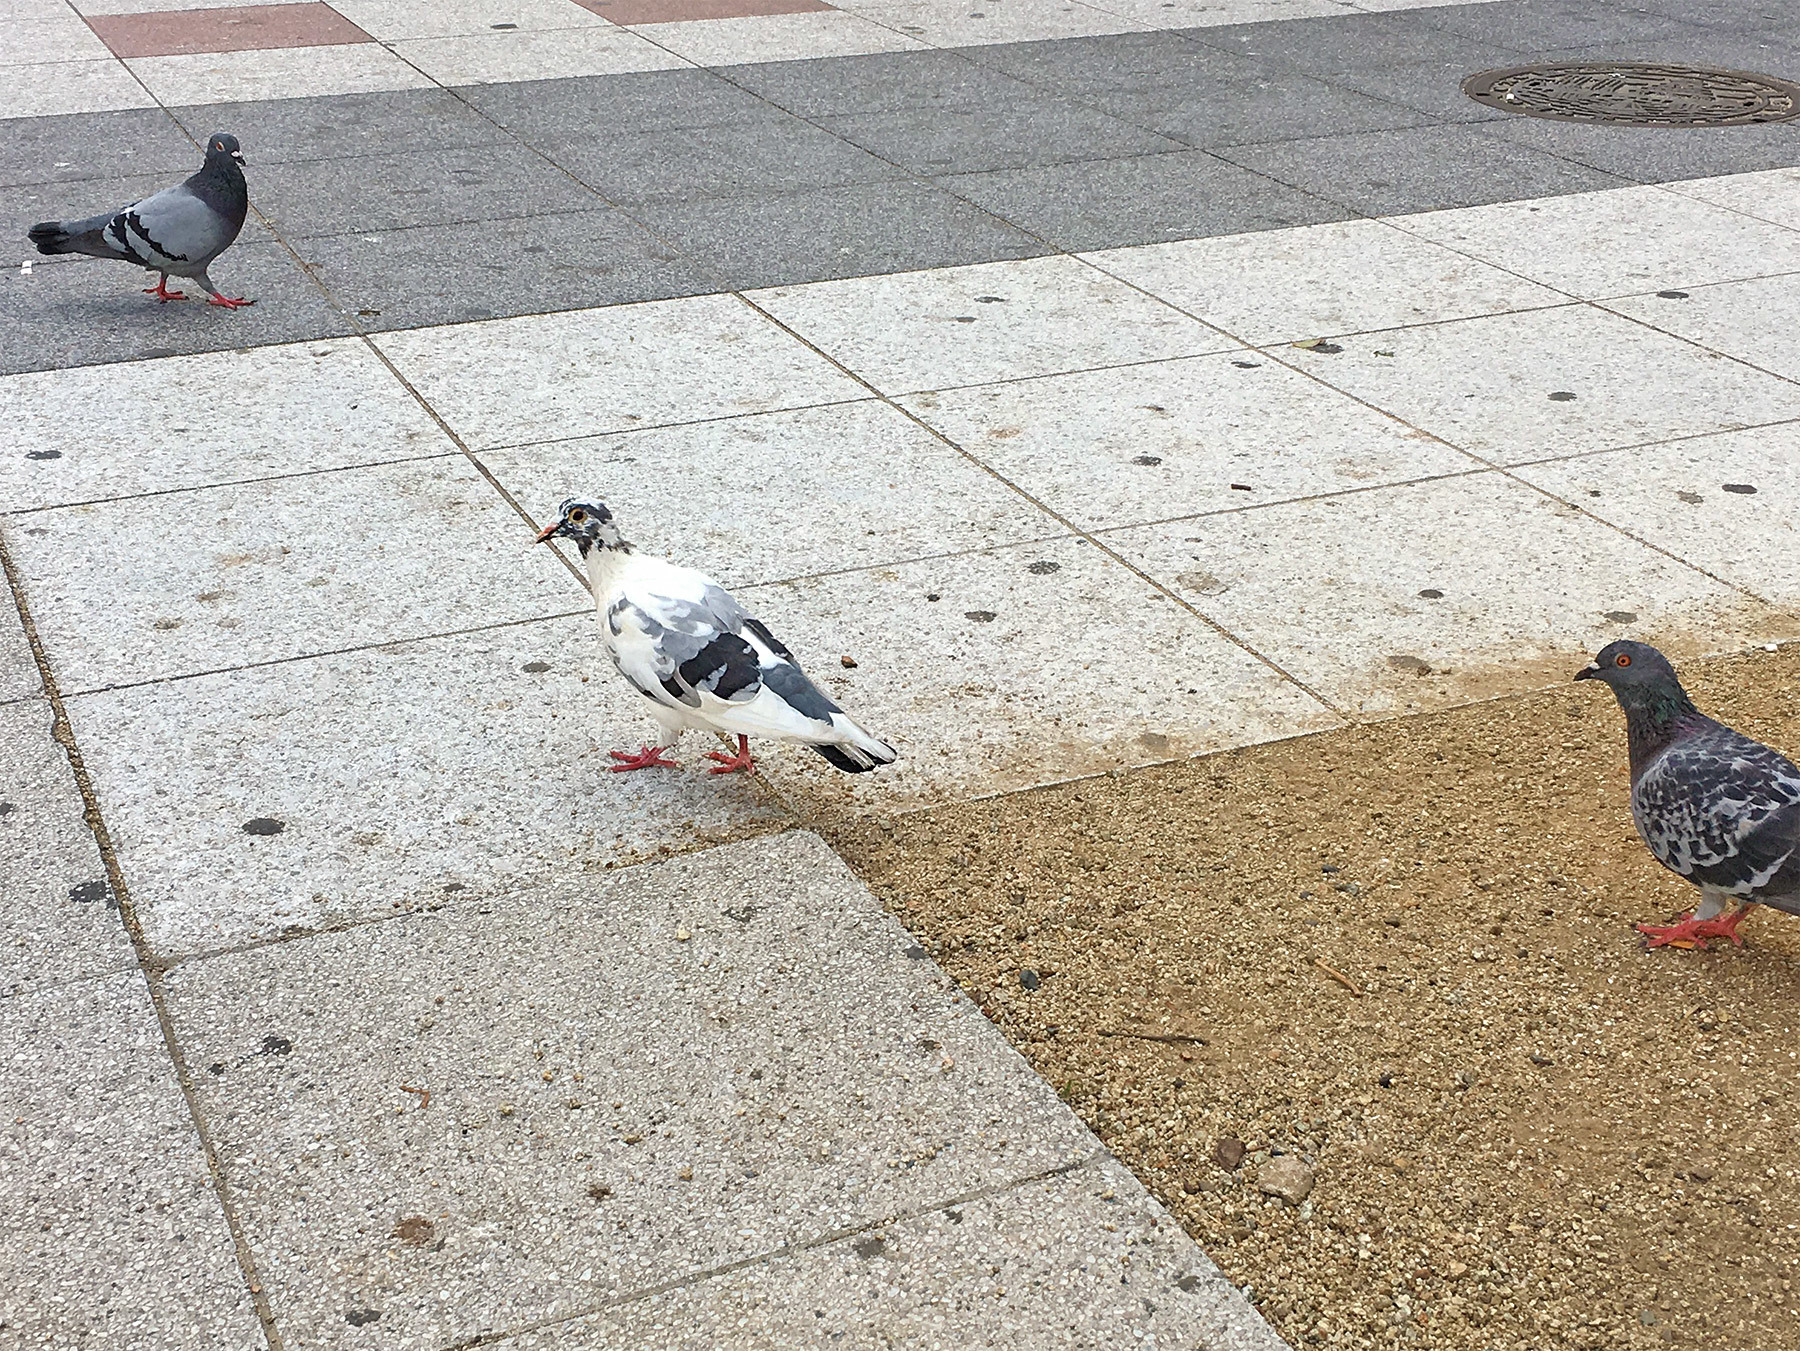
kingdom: Animalia
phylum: Chordata
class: Aves
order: Columbiformes
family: Columbidae
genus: Columba
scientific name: Columba livia
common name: Rock pigeon
